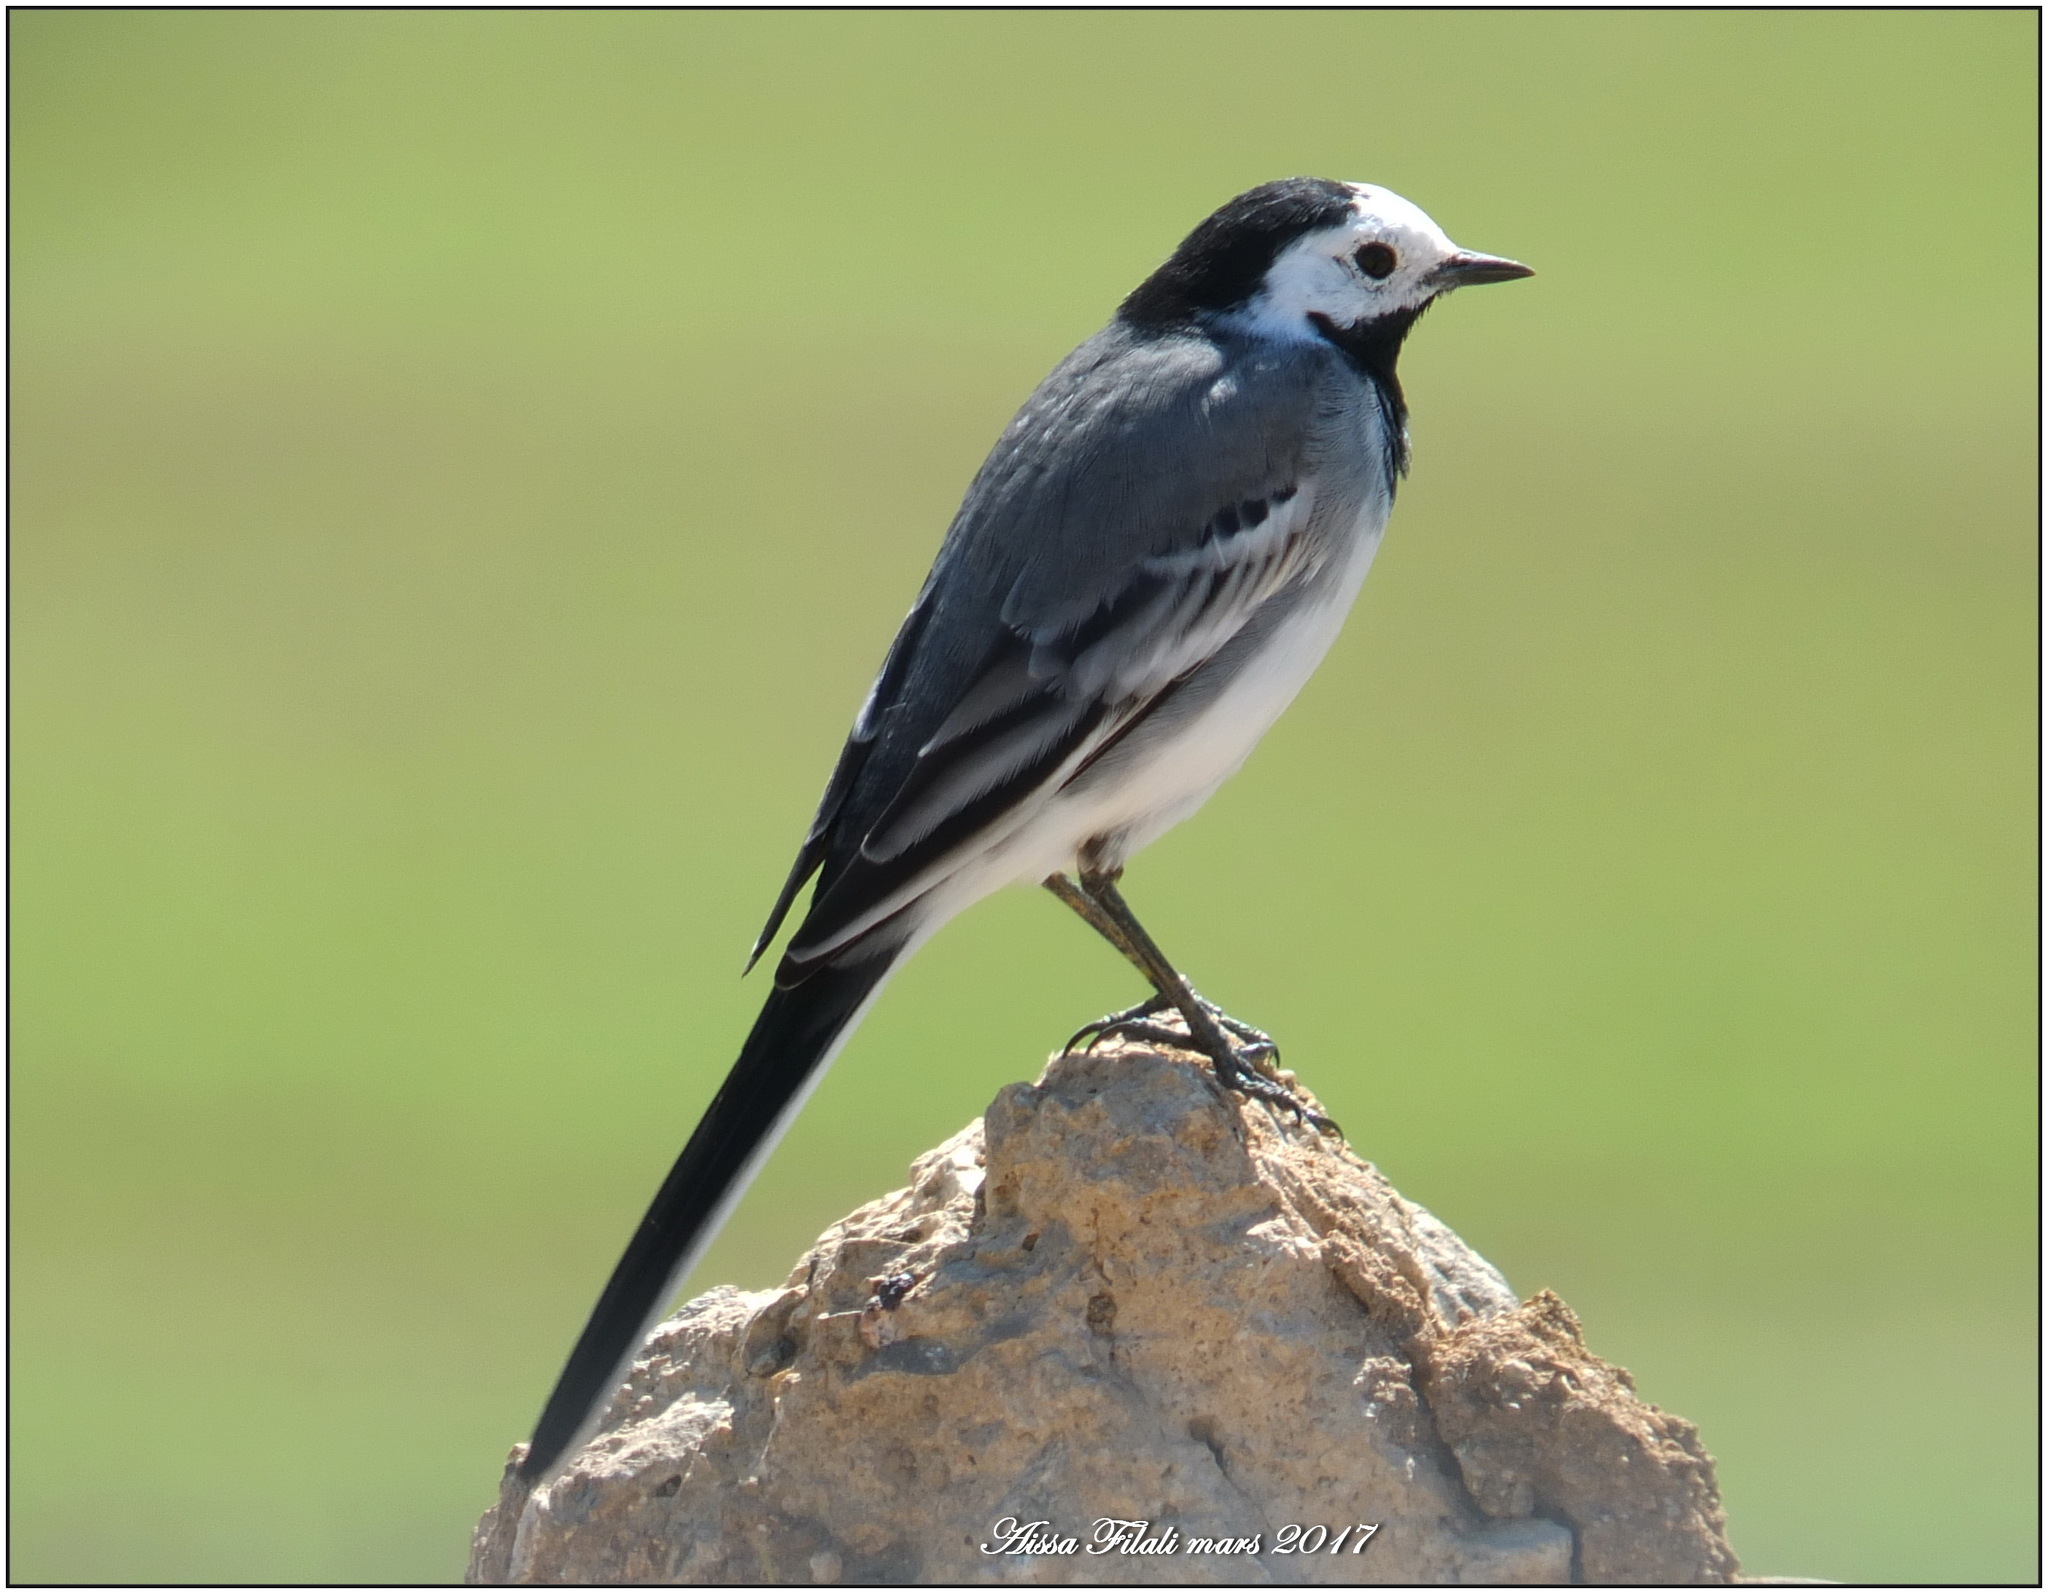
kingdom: Animalia
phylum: Chordata
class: Aves
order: Passeriformes
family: Motacillidae
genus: Motacilla
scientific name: Motacilla alba
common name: White wagtail
